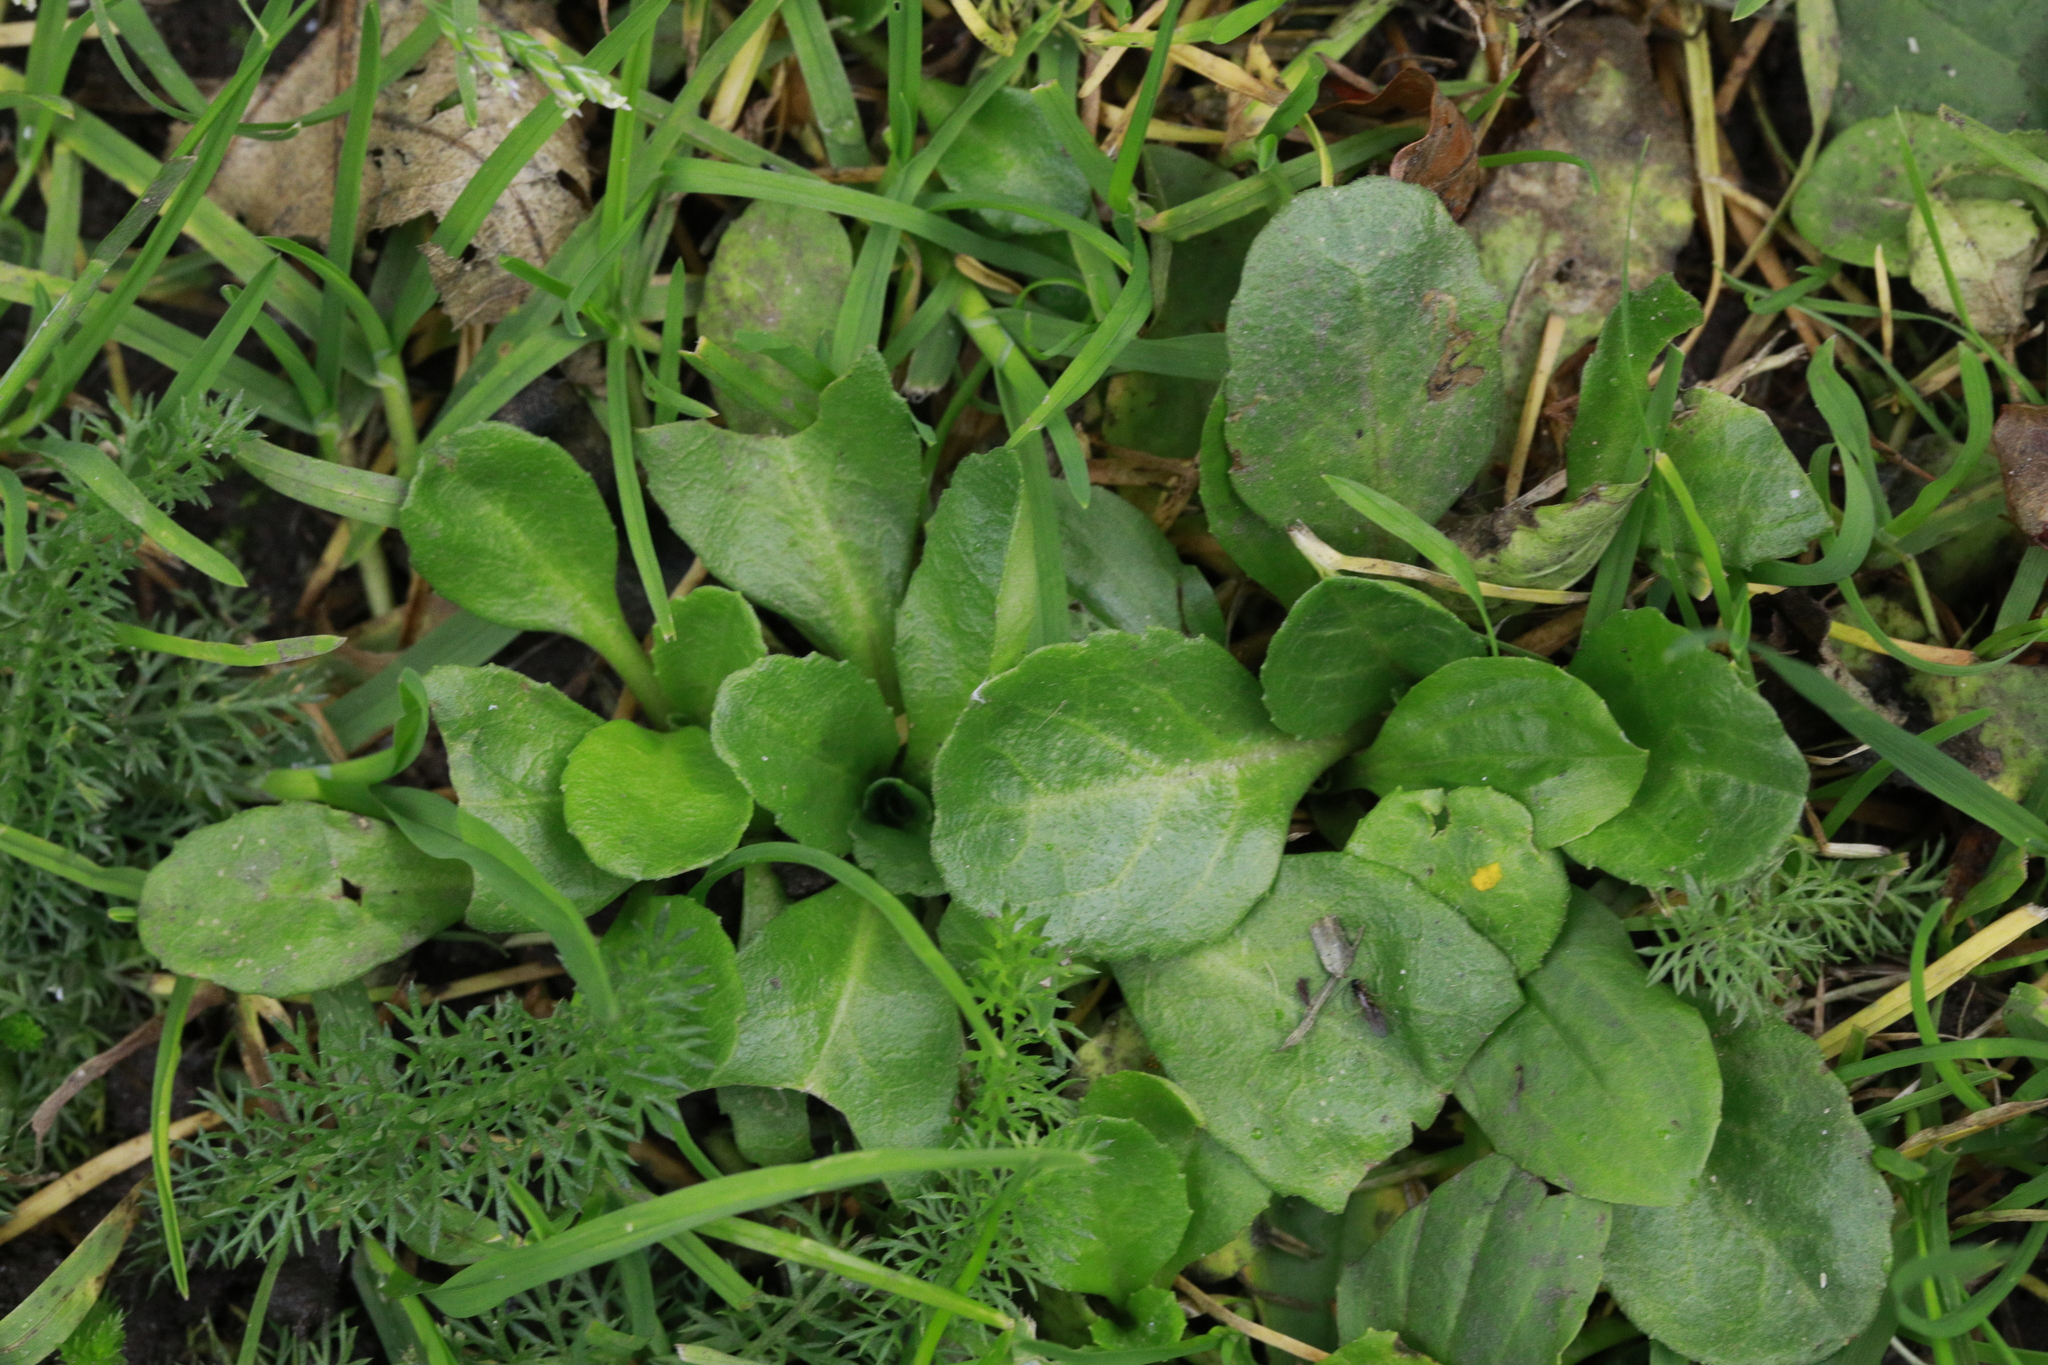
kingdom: Plantae
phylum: Tracheophyta
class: Magnoliopsida
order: Asterales
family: Asteraceae
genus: Bellis
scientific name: Bellis perennis
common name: Lawndaisy
